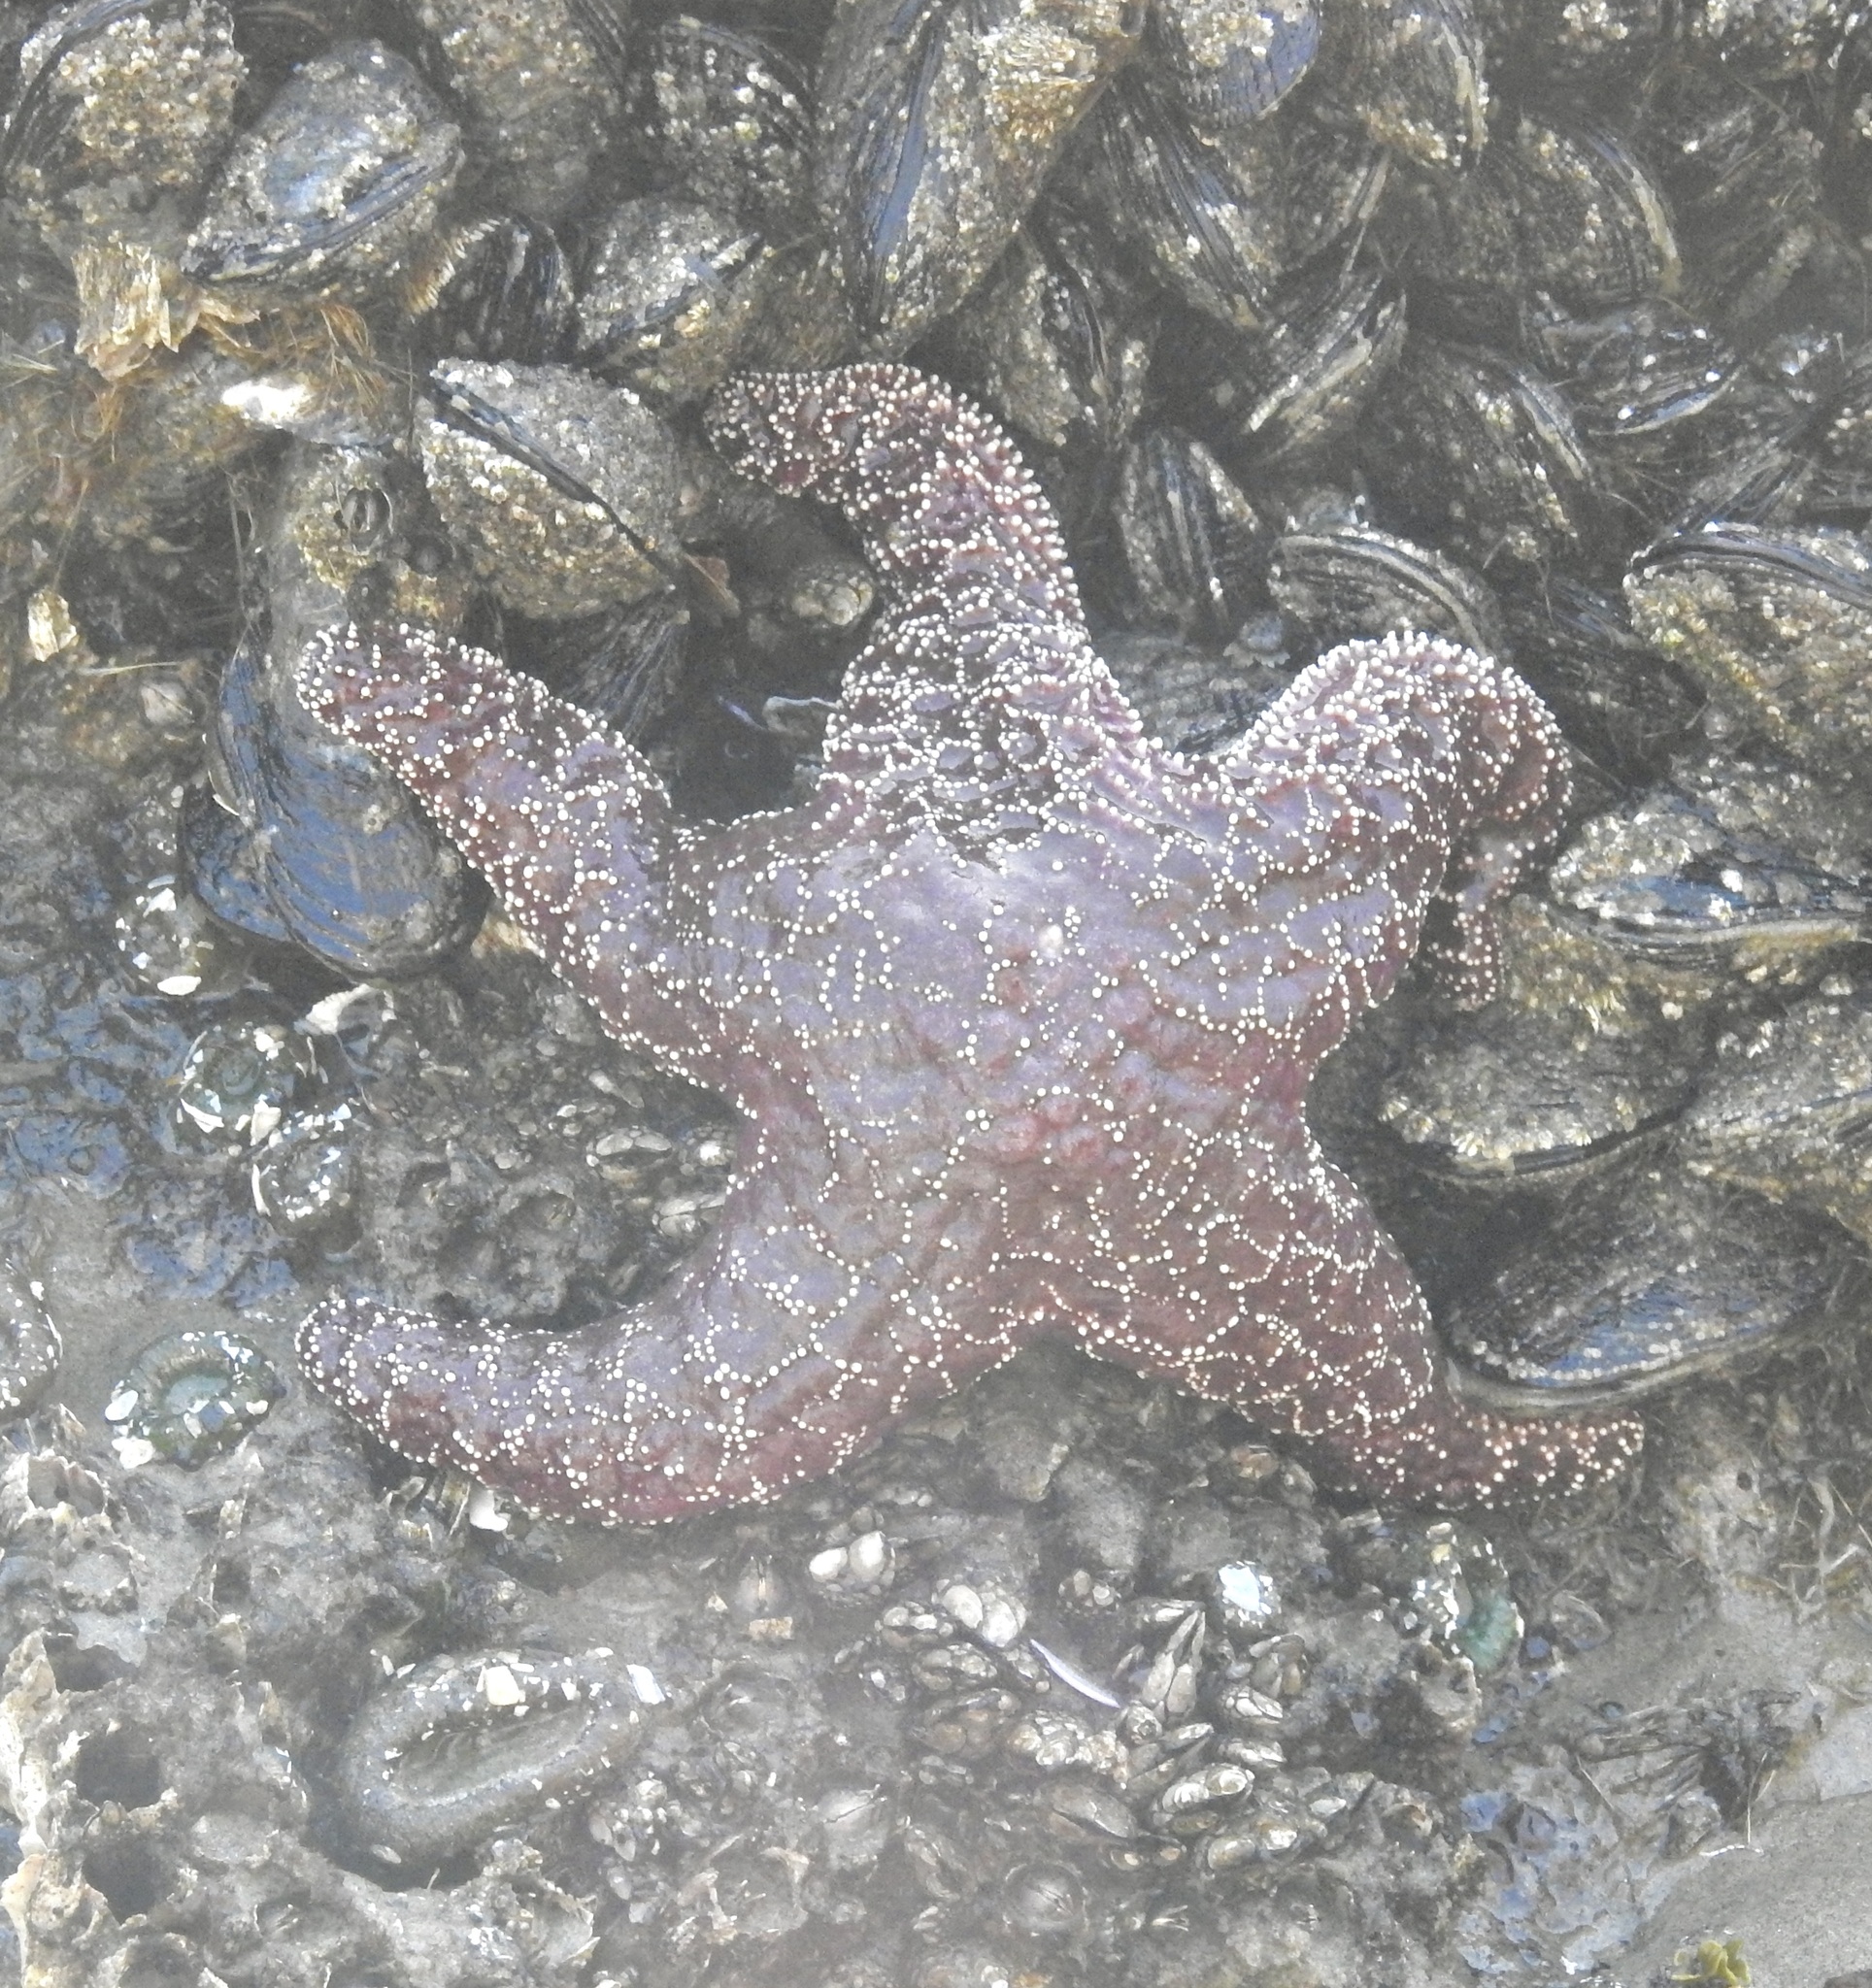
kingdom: Animalia
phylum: Echinodermata
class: Asteroidea
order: Forcipulatida
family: Asteriidae
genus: Pisaster
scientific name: Pisaster ochraceus
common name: Ochre stars
